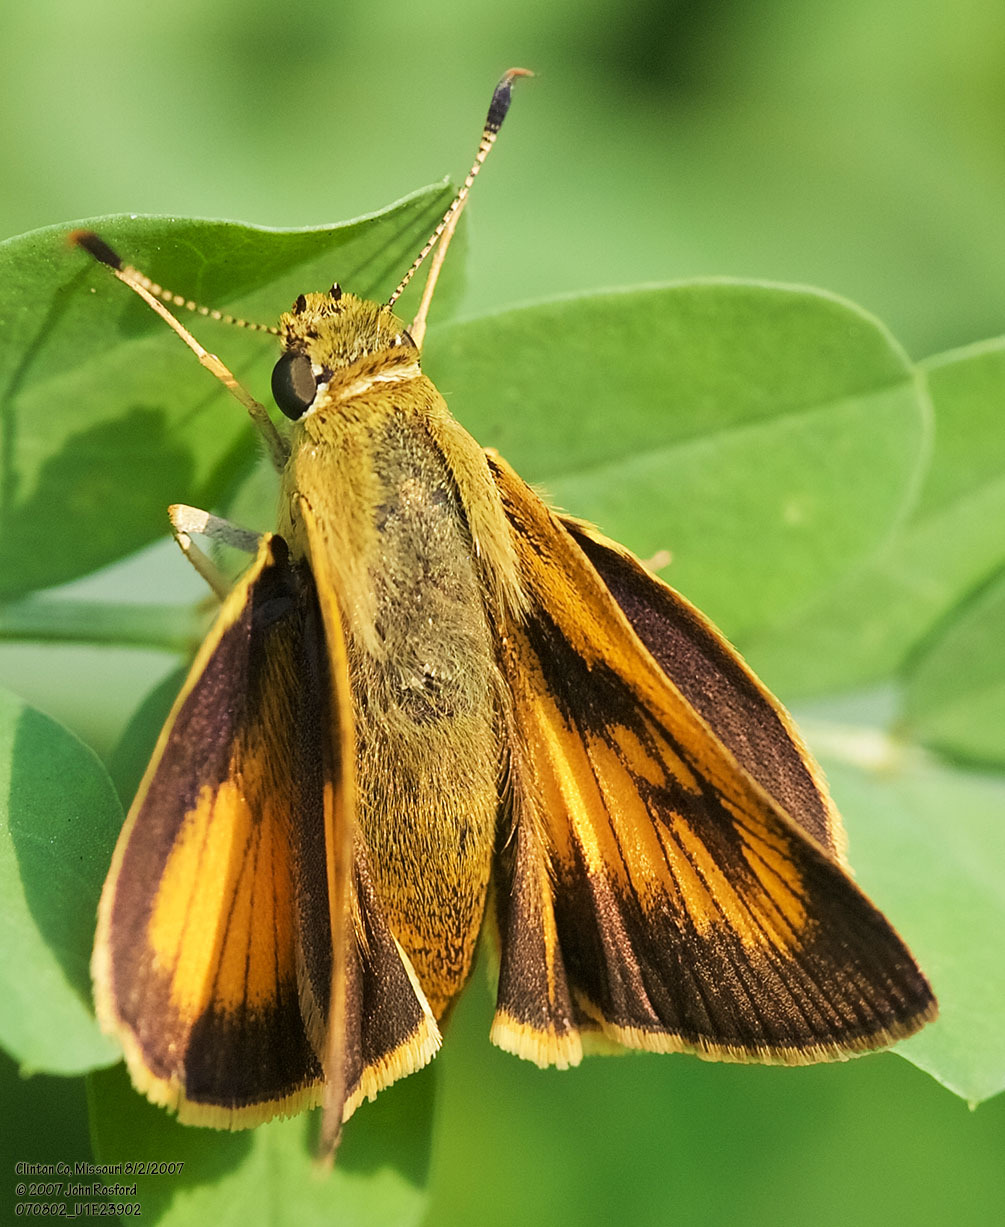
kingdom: Animalia
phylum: Arthropoda
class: Insecta
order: Lepidoptera
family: Hesperiidae
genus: Atrytone
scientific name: Atrytone delaware
